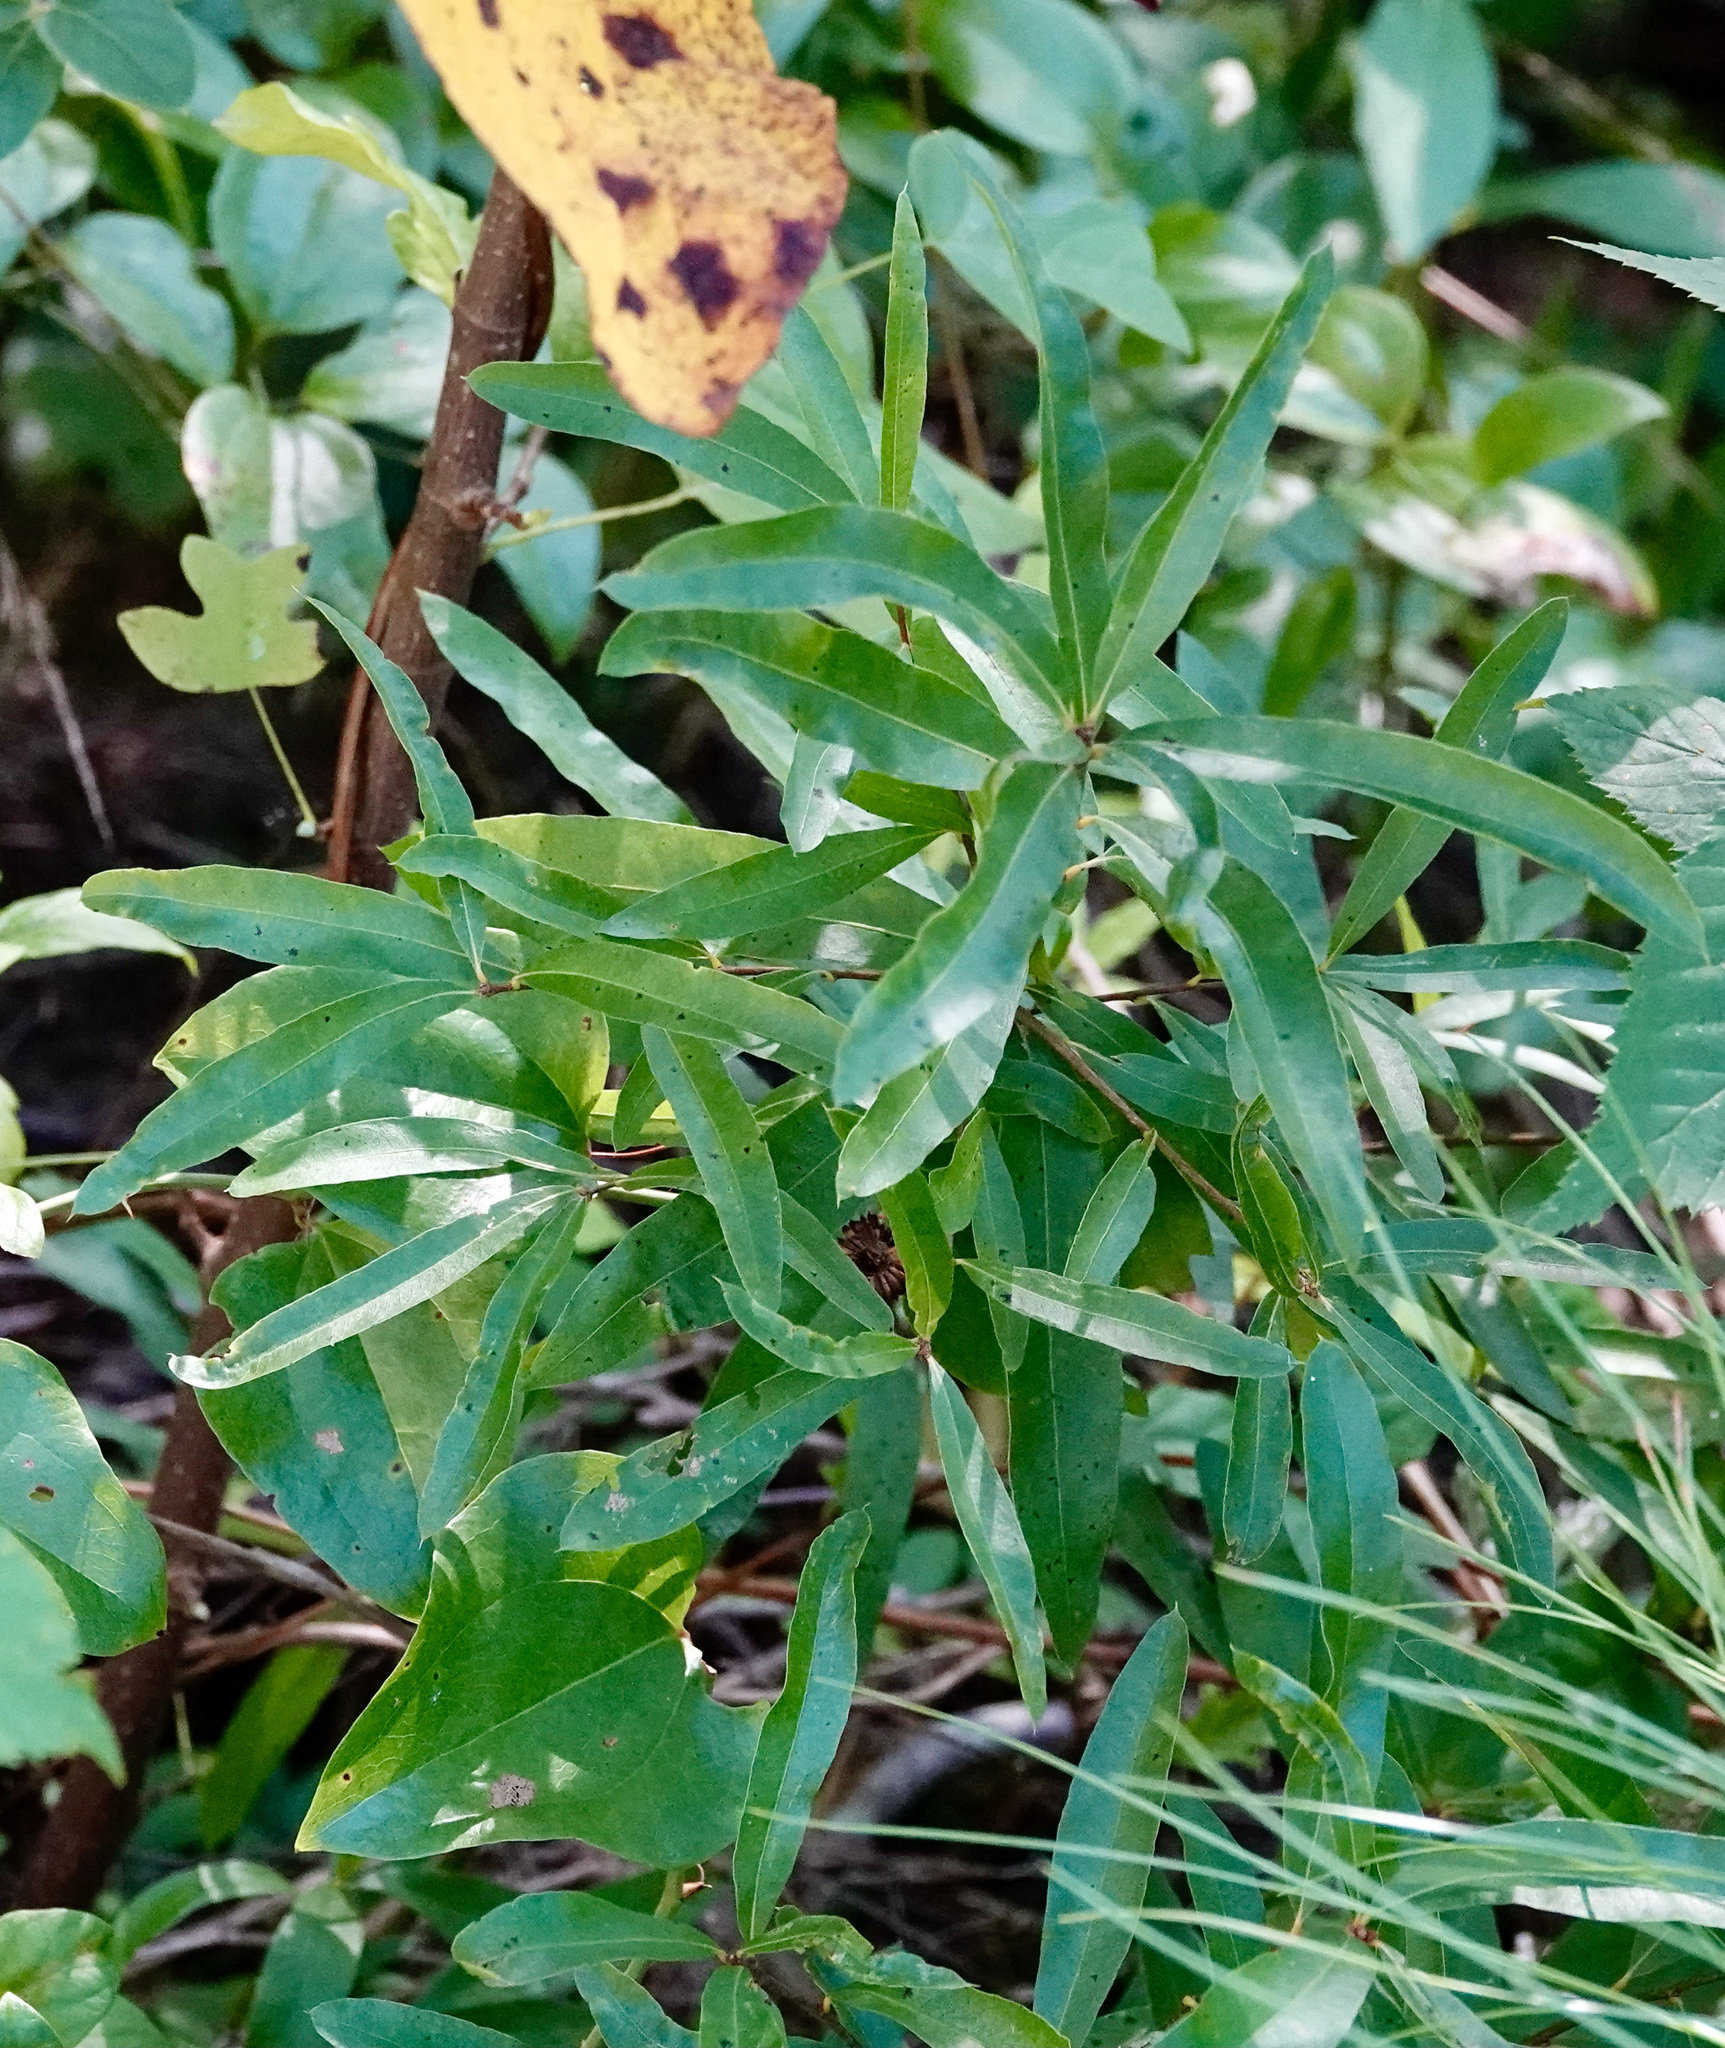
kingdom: Plantae
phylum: Tracheophyta
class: Magnoliopsida
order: Fagales
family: Fagaceae
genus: Quercus
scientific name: Quercus phellos
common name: Willow oak
